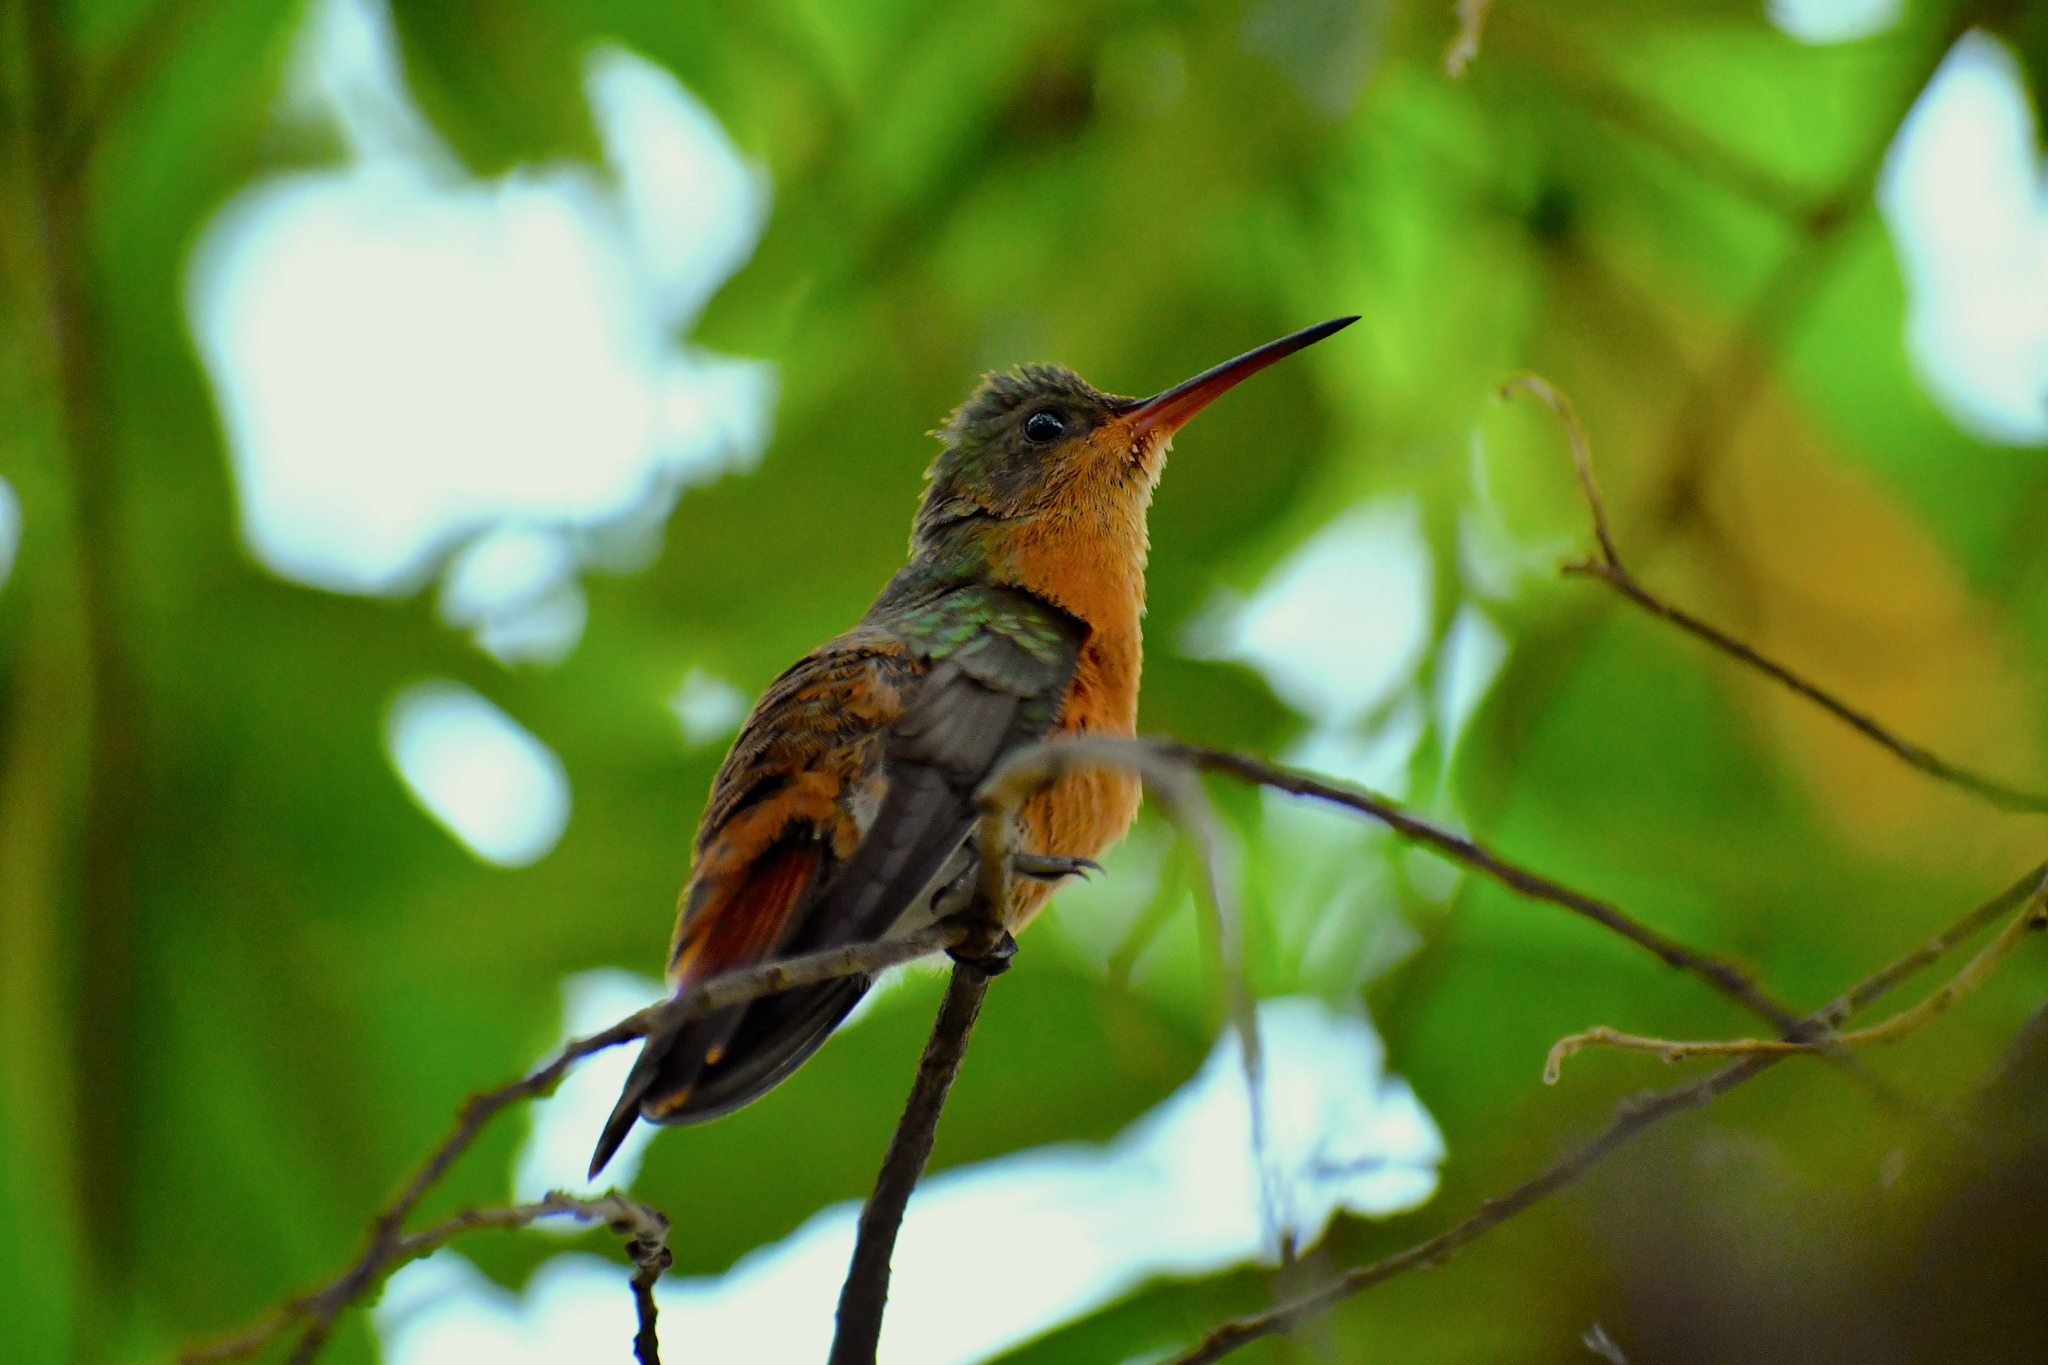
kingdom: Animalia
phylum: Chordata
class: Aves
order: Apodiformes
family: Trochilidae
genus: Amazilia
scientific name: Amazilia rutila
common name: Cinnamon hummingbird
